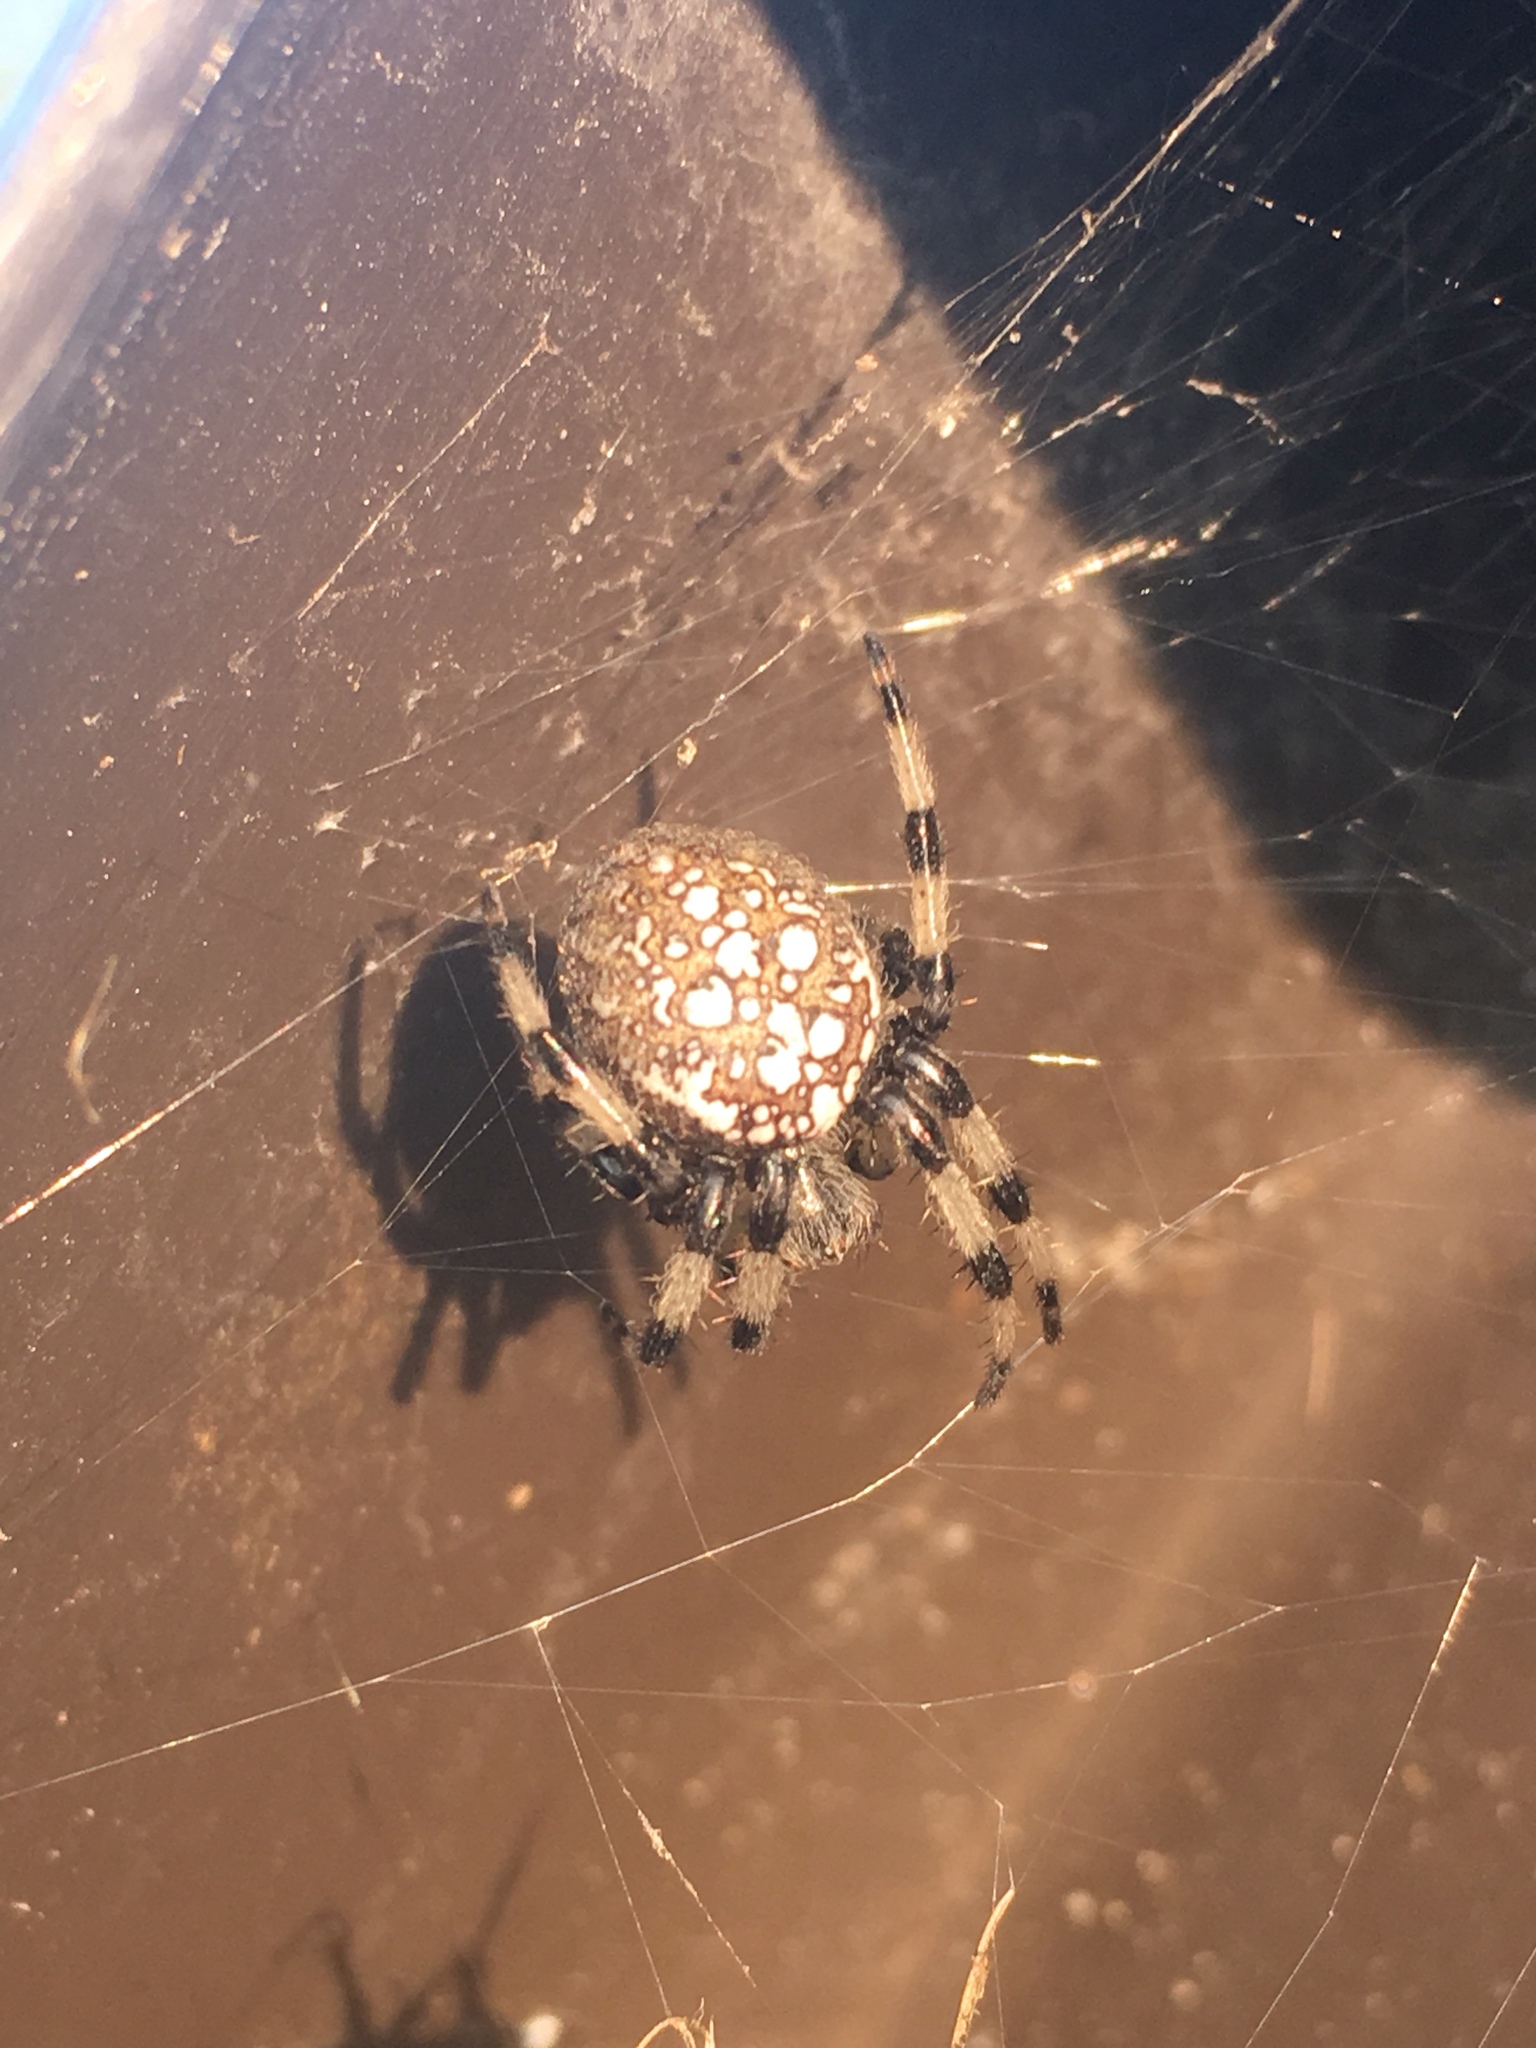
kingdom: Animalia
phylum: Arthropoda
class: Arachnida
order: Araneae
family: Araneidae
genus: Araneus
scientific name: Araneus trifolium
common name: Shamrock orbweaver
